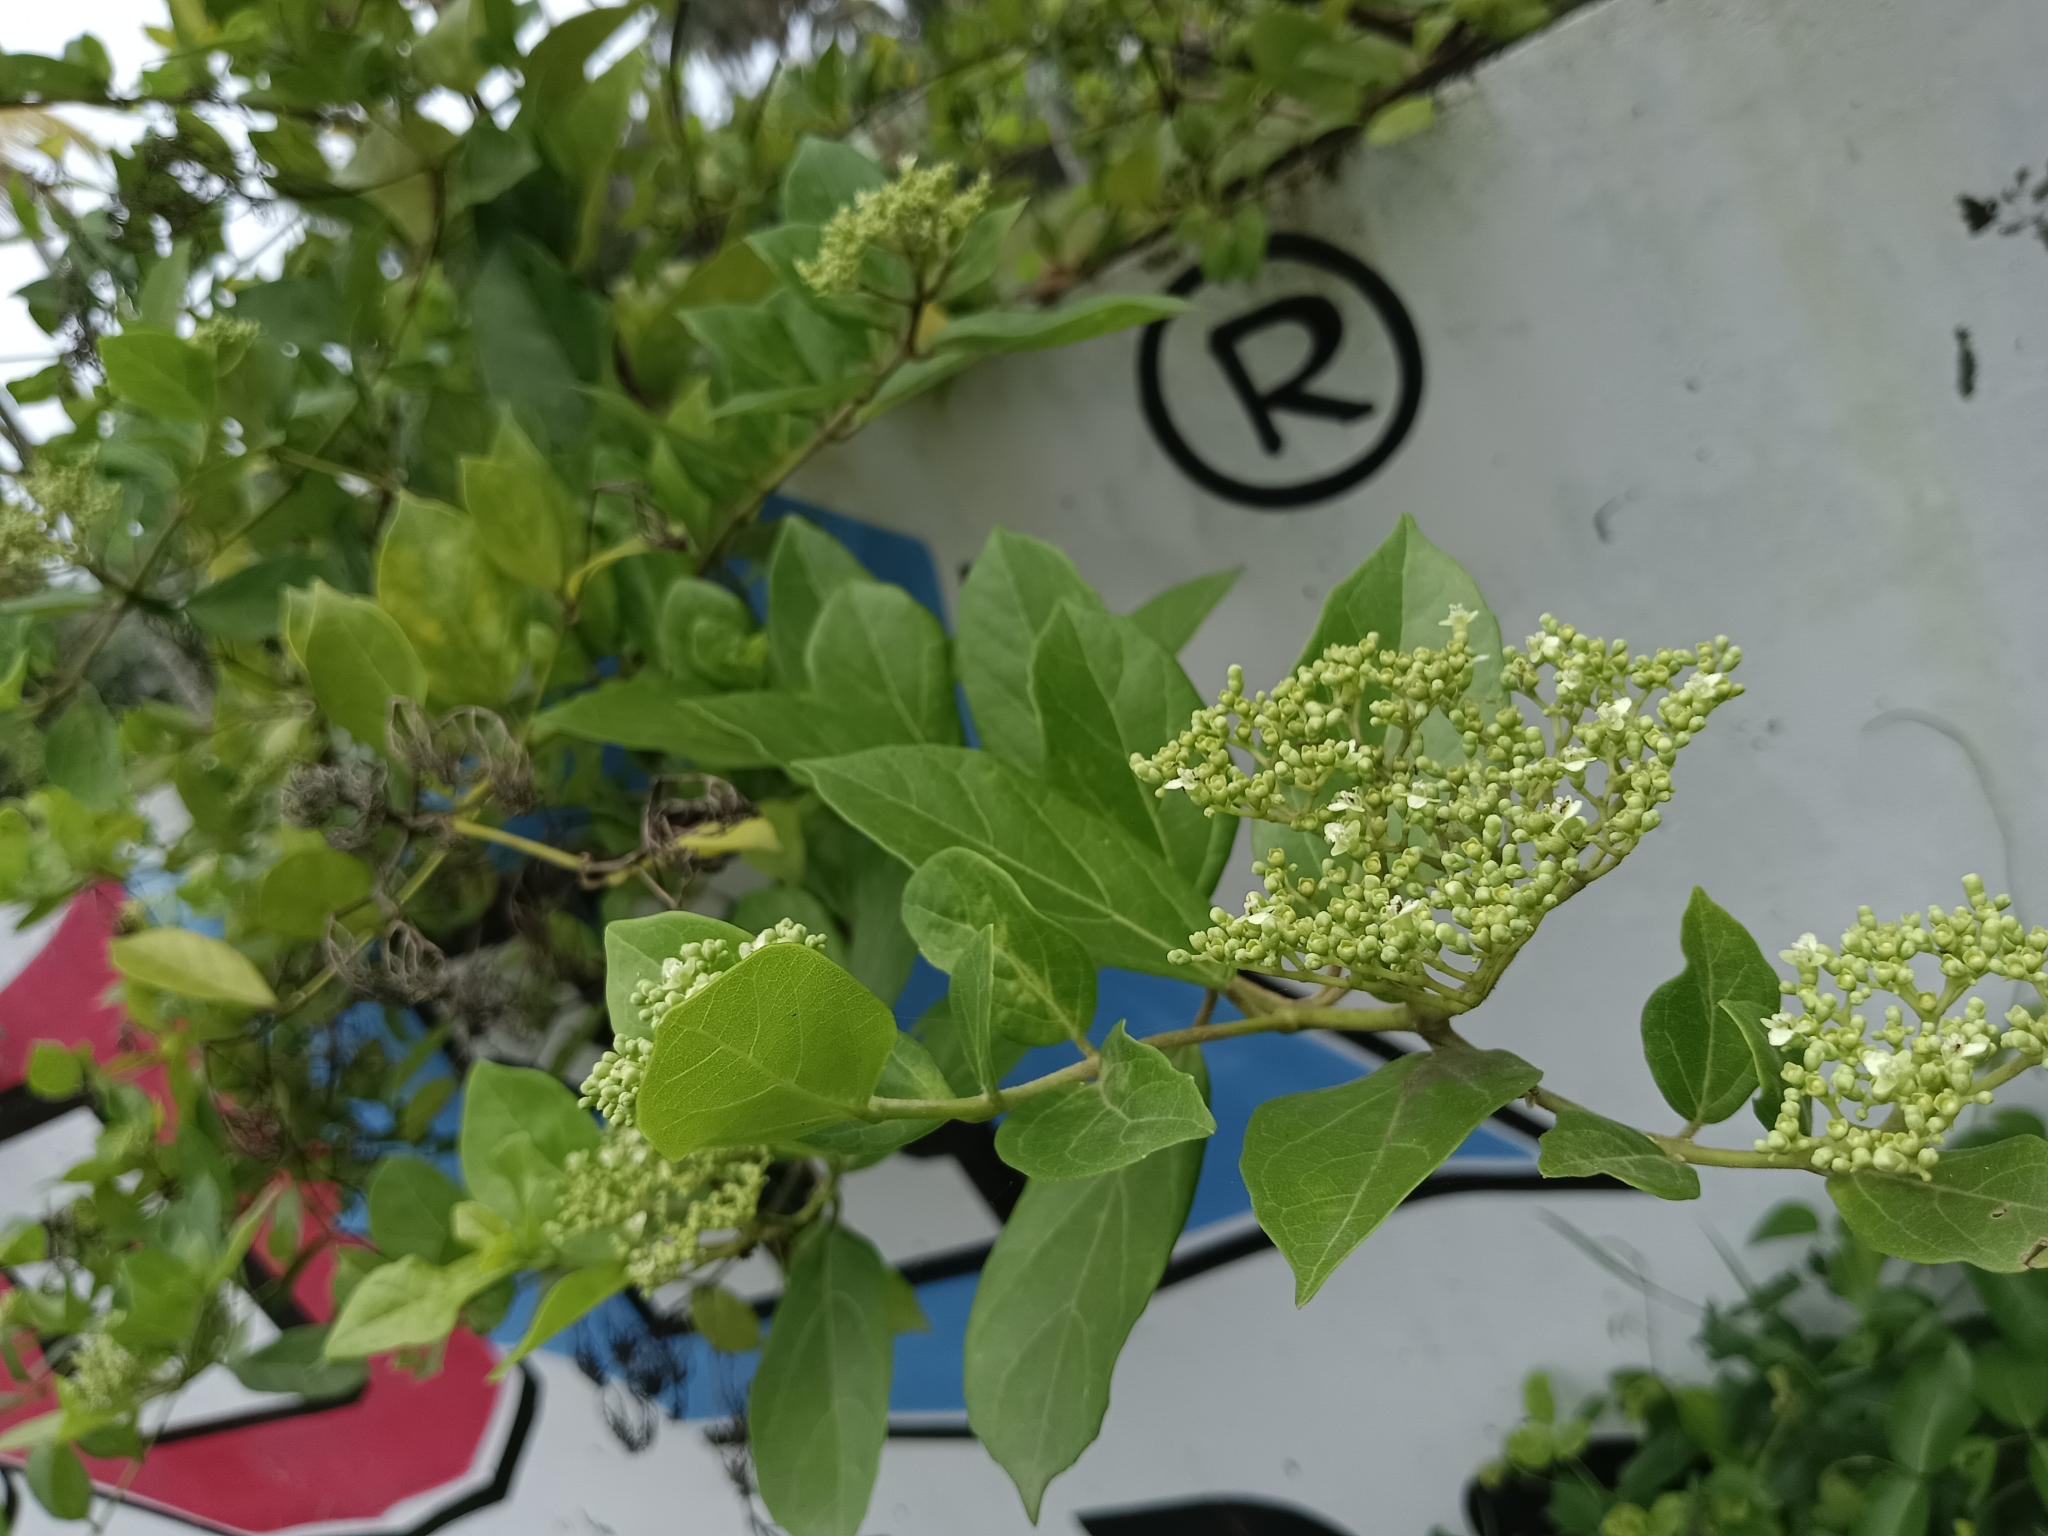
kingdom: Plantae
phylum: Tracheophyta
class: Magnoliopsida
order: Lamiales
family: Lamiaceae
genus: Premna
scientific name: Premna serratifolia
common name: Bastard guelder
